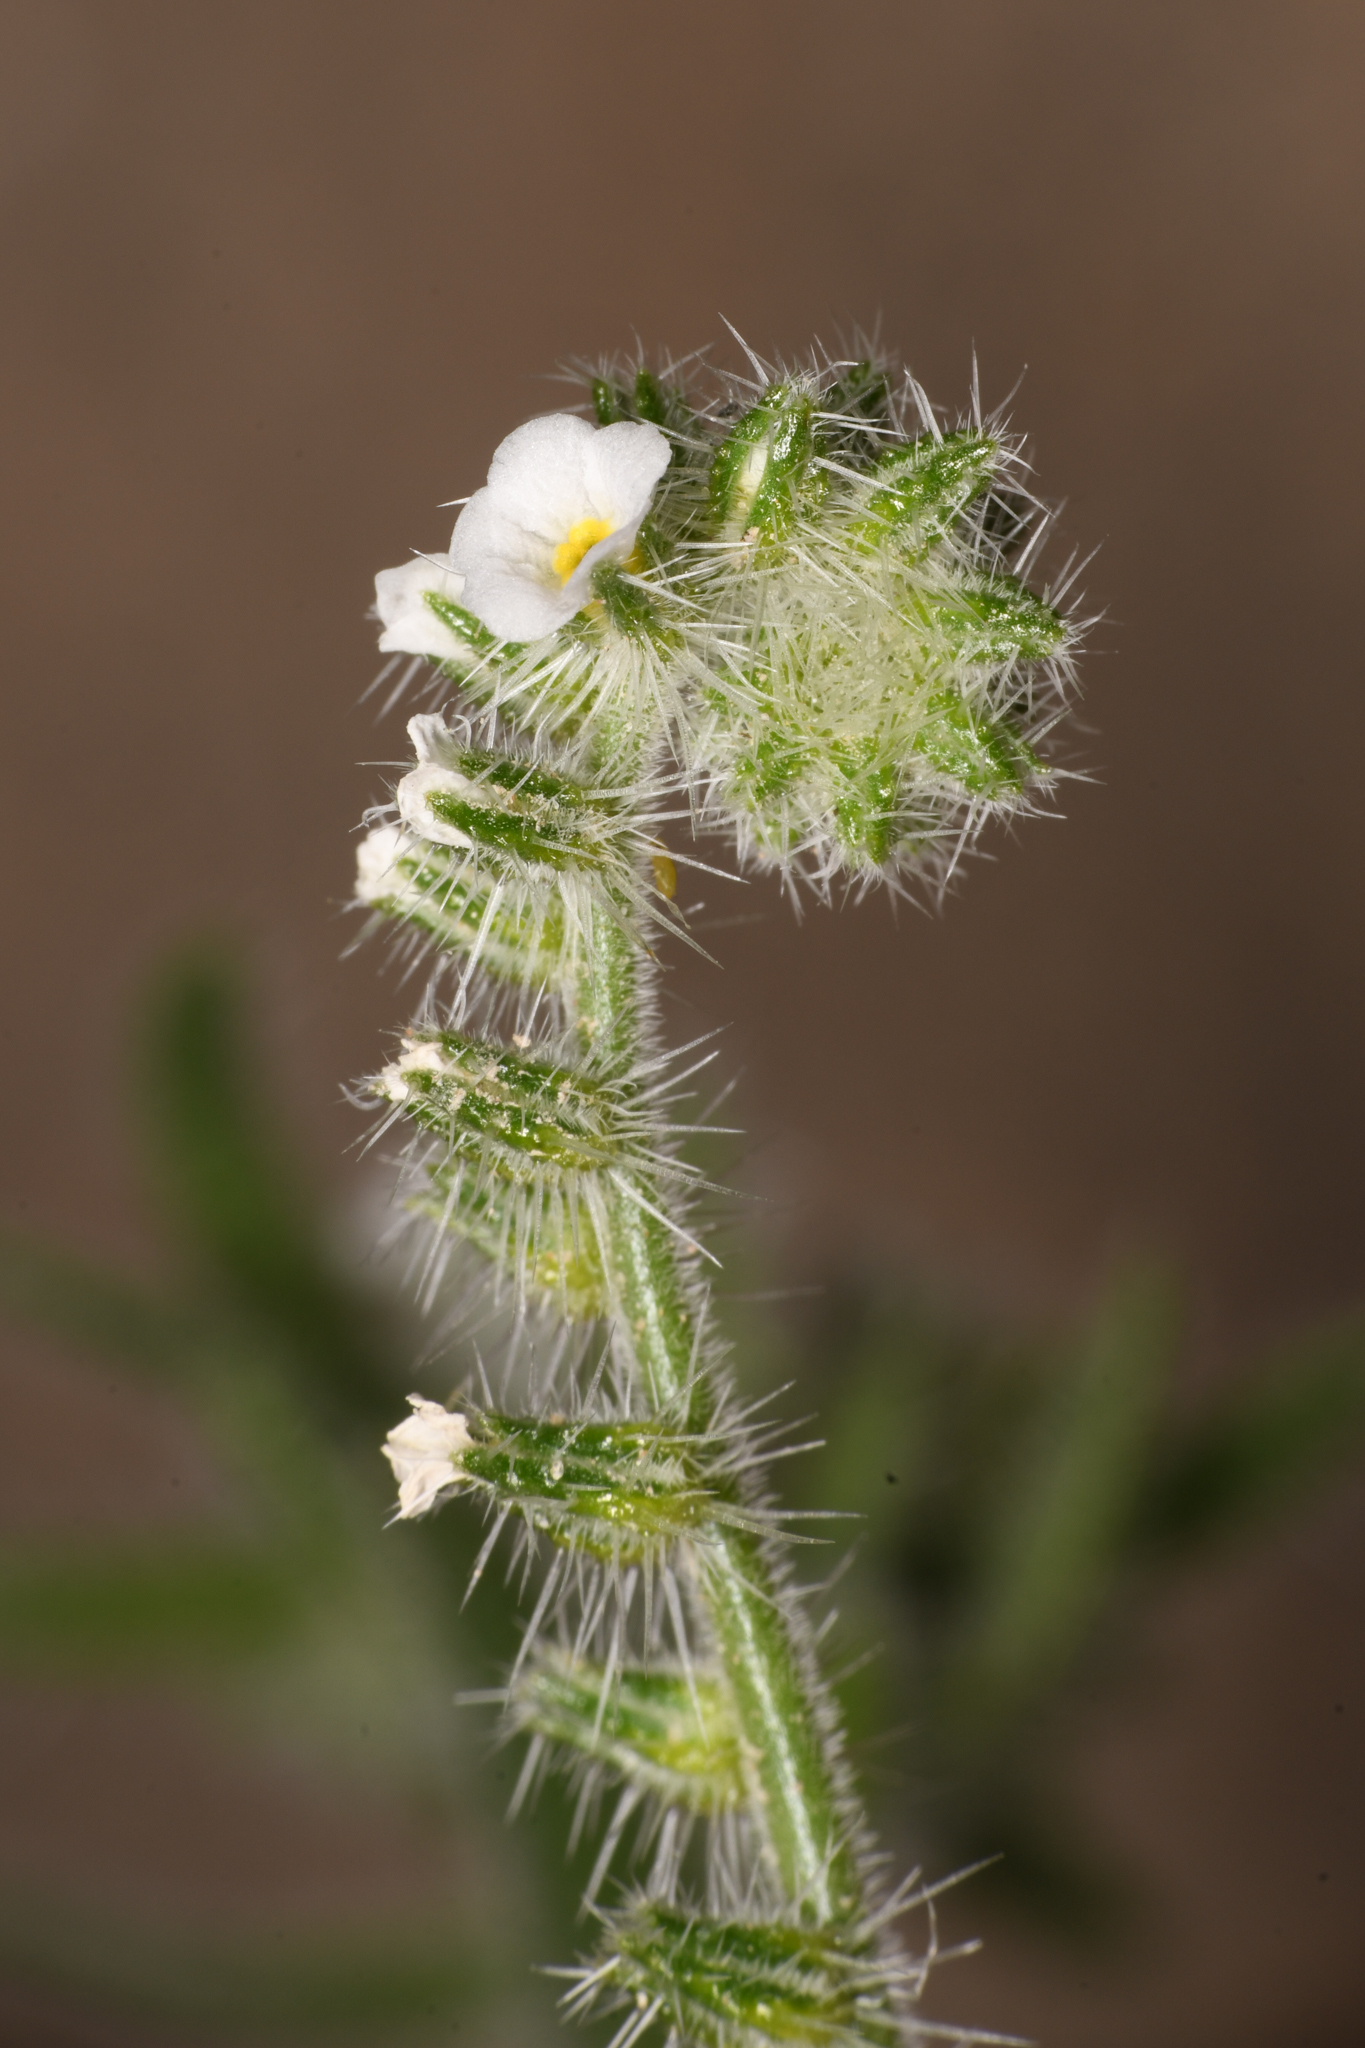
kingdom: Plantae
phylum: Tracheophyta
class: Magnoliopsida
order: Boraginales
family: Boraginaceae
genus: Johnstonella
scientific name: Johnstonella angustifolia
